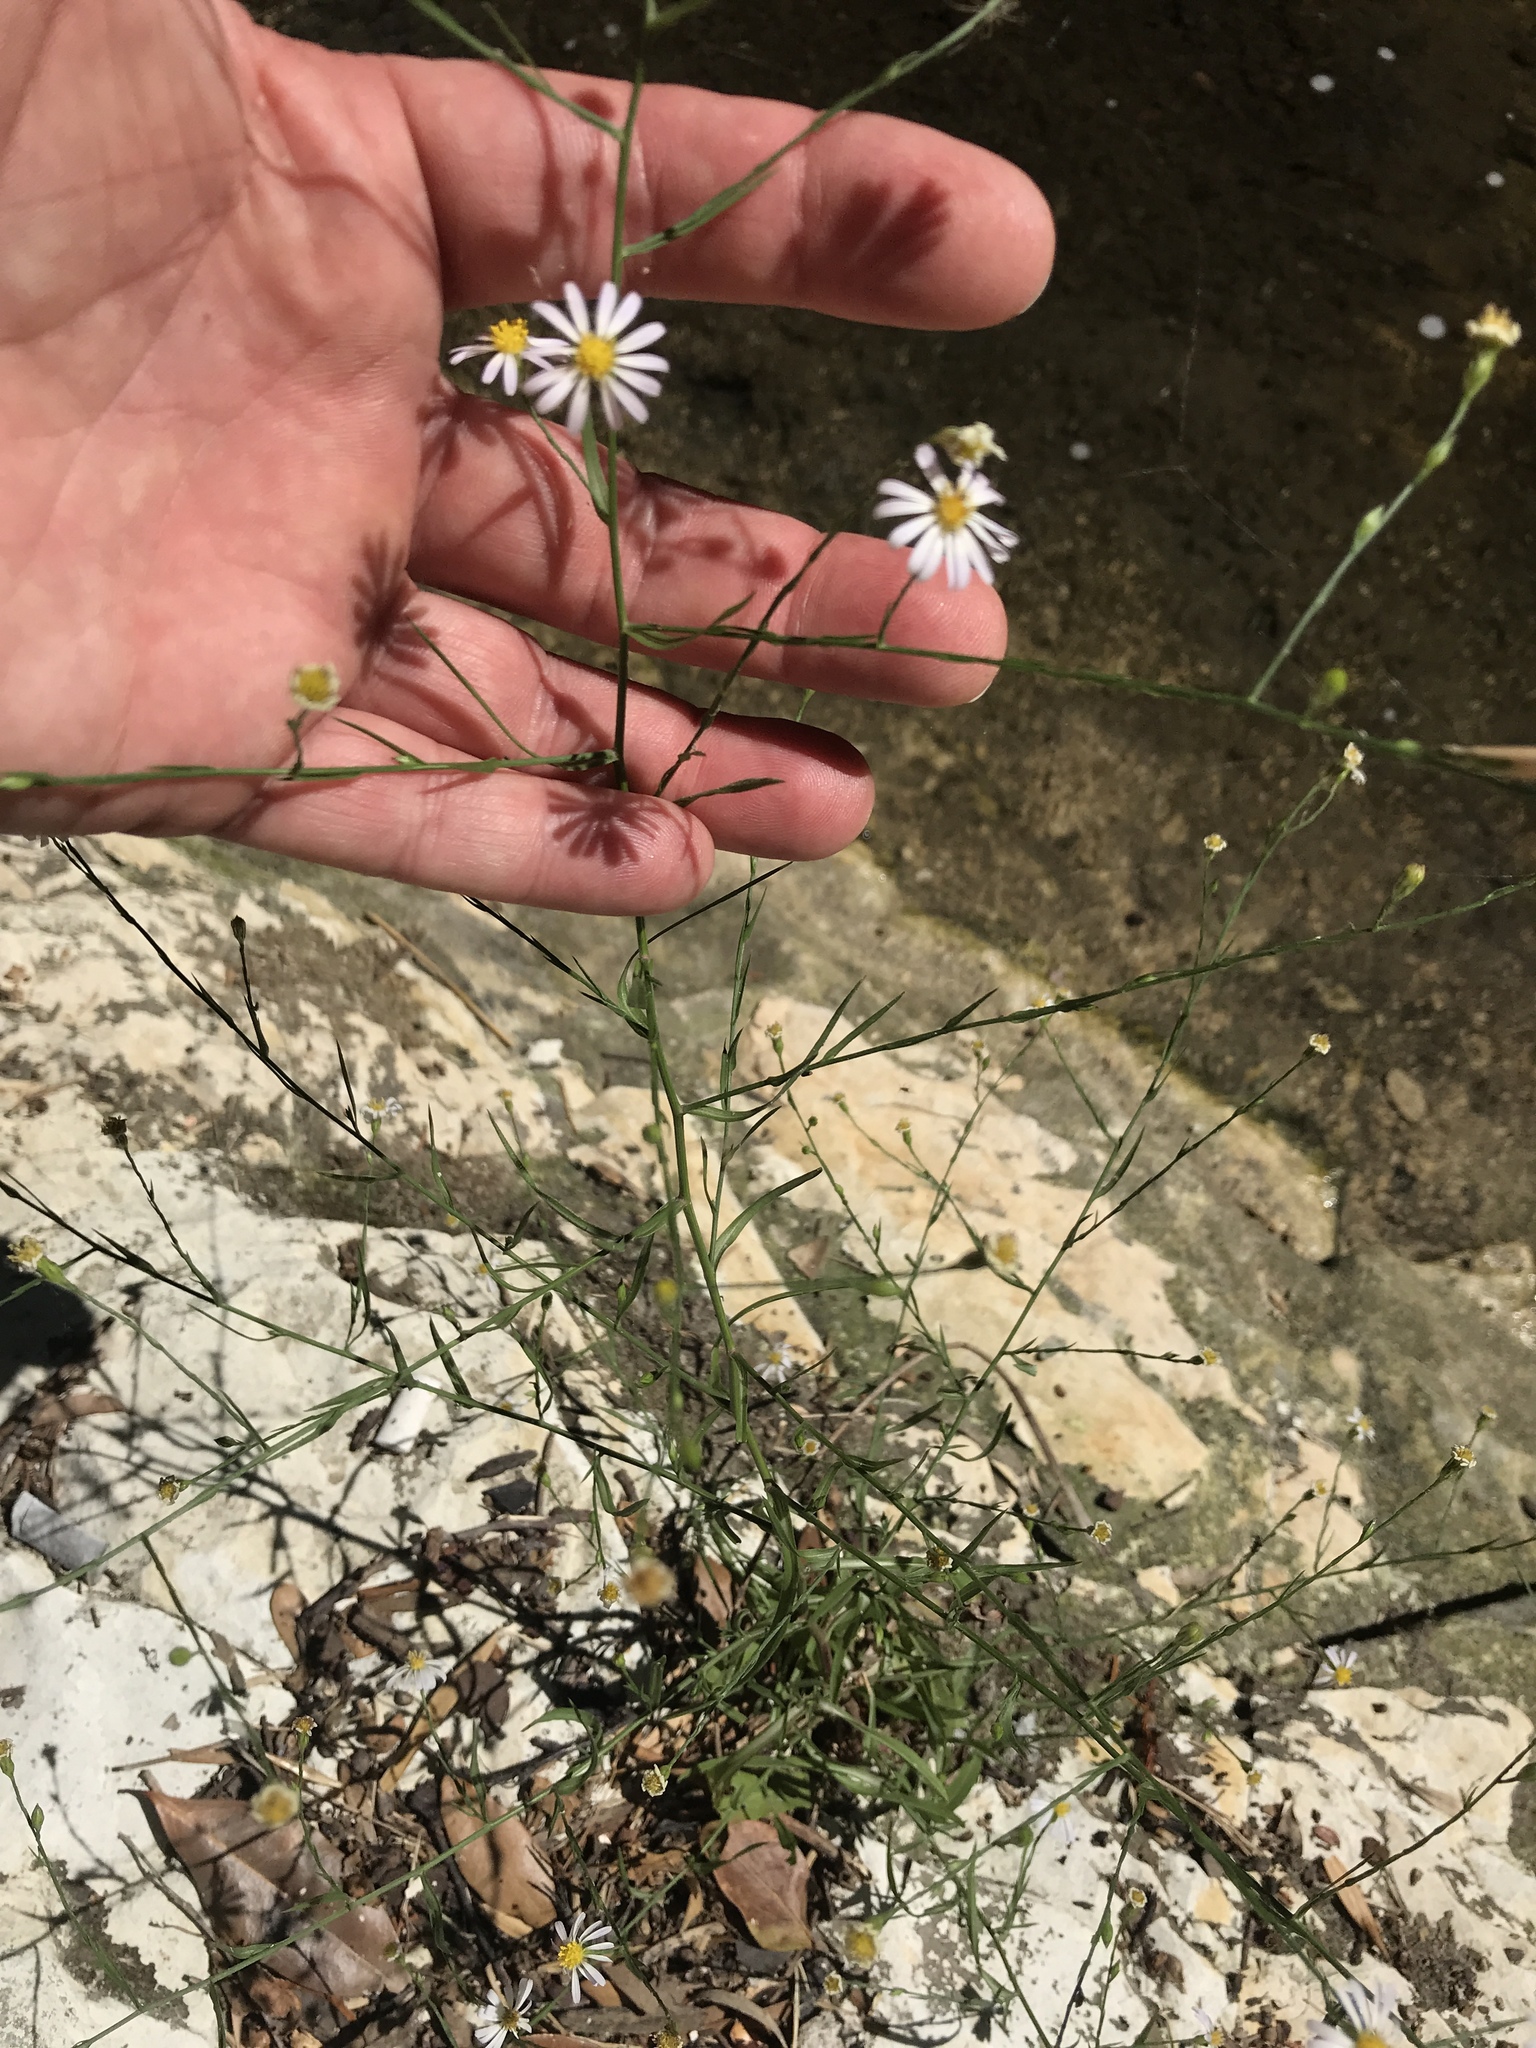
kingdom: Plantae
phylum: Tracheophyta
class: Magnoliopsida
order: Asterales
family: Asteraceae
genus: Symphyotrichum
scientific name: Symphyotrichum divaricatum
